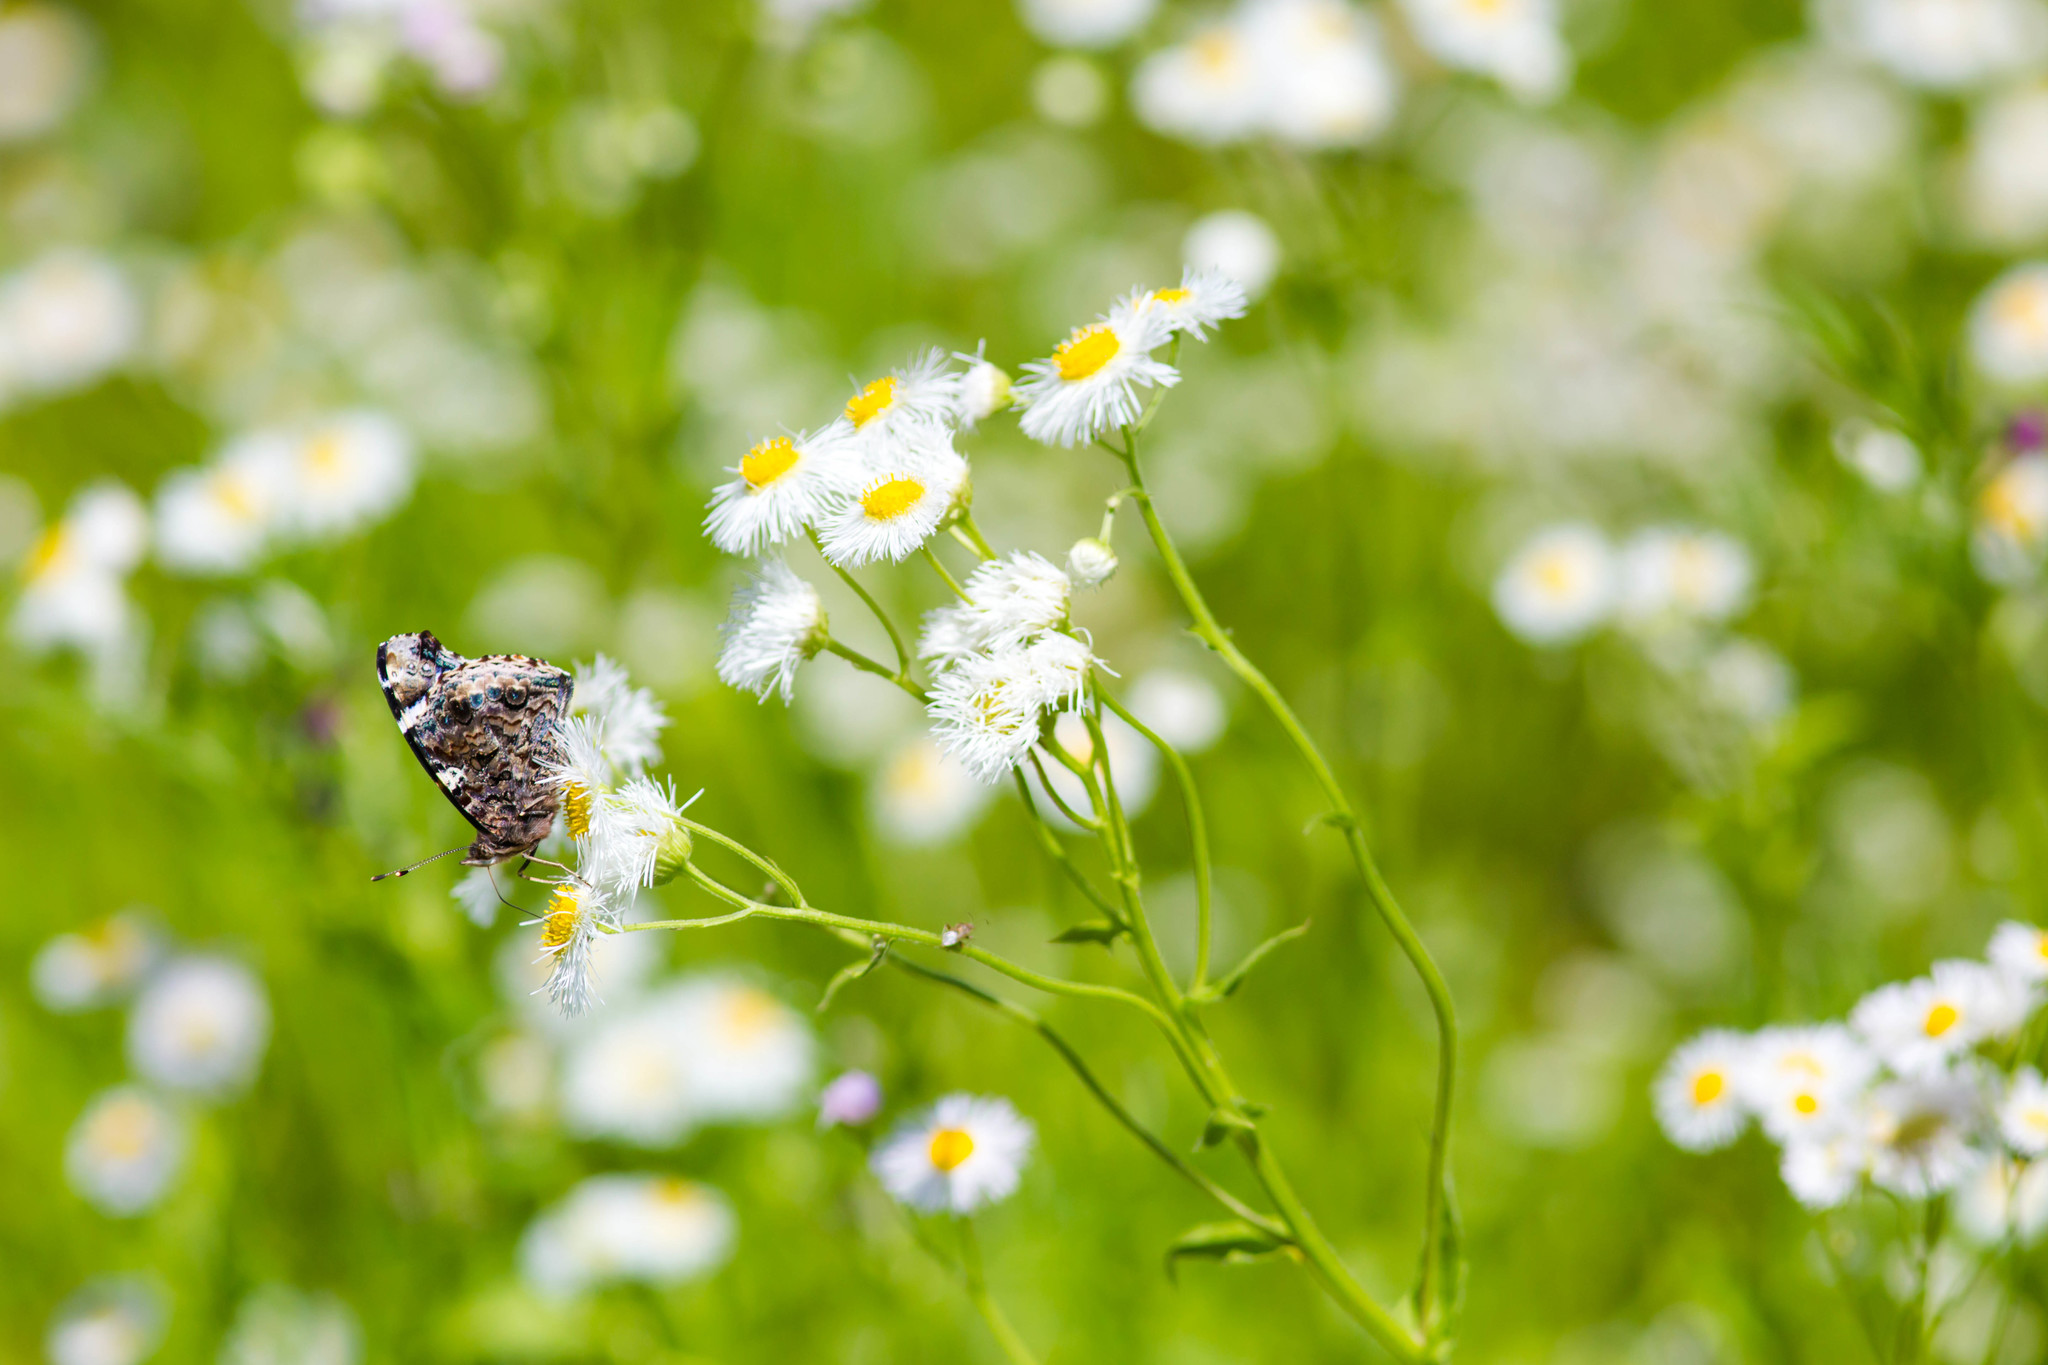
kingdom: Animalia
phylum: Arthropoda
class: Insecta
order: Lepidoptera
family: Nymphalidae
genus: Vanessa
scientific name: Vanessa atalanta
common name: Red admiral
